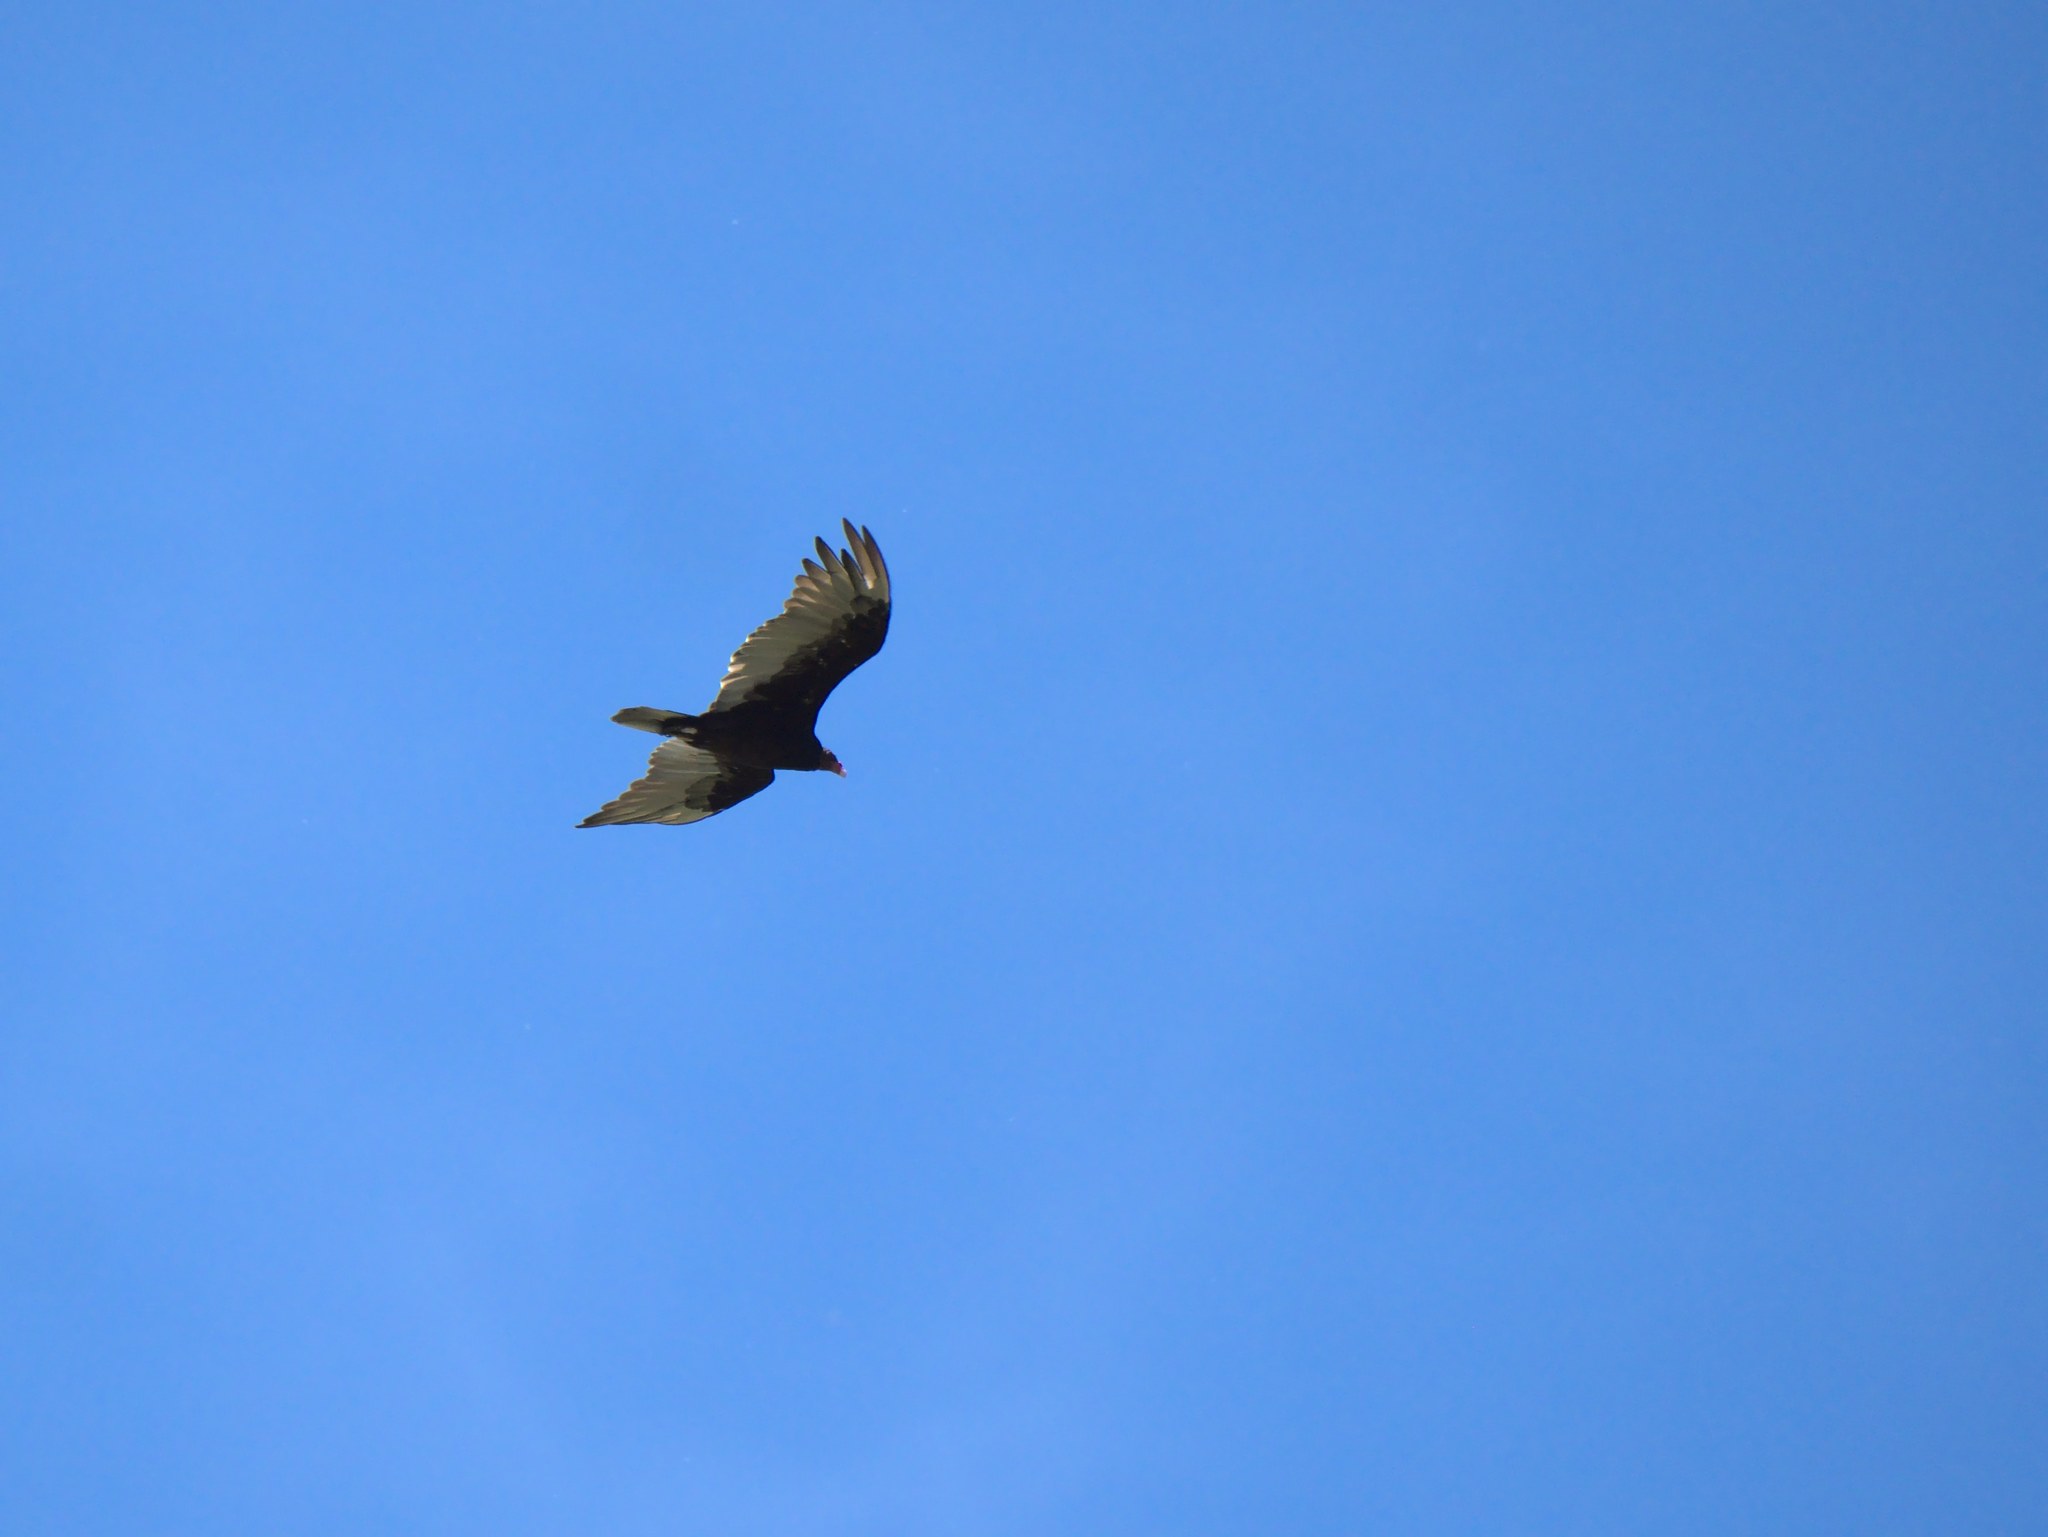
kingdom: Animalia
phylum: Chordata
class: Aves
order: Accipitriformes
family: Cathartidae
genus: Cathartes
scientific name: Cathartes aura
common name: Turkey vulture
